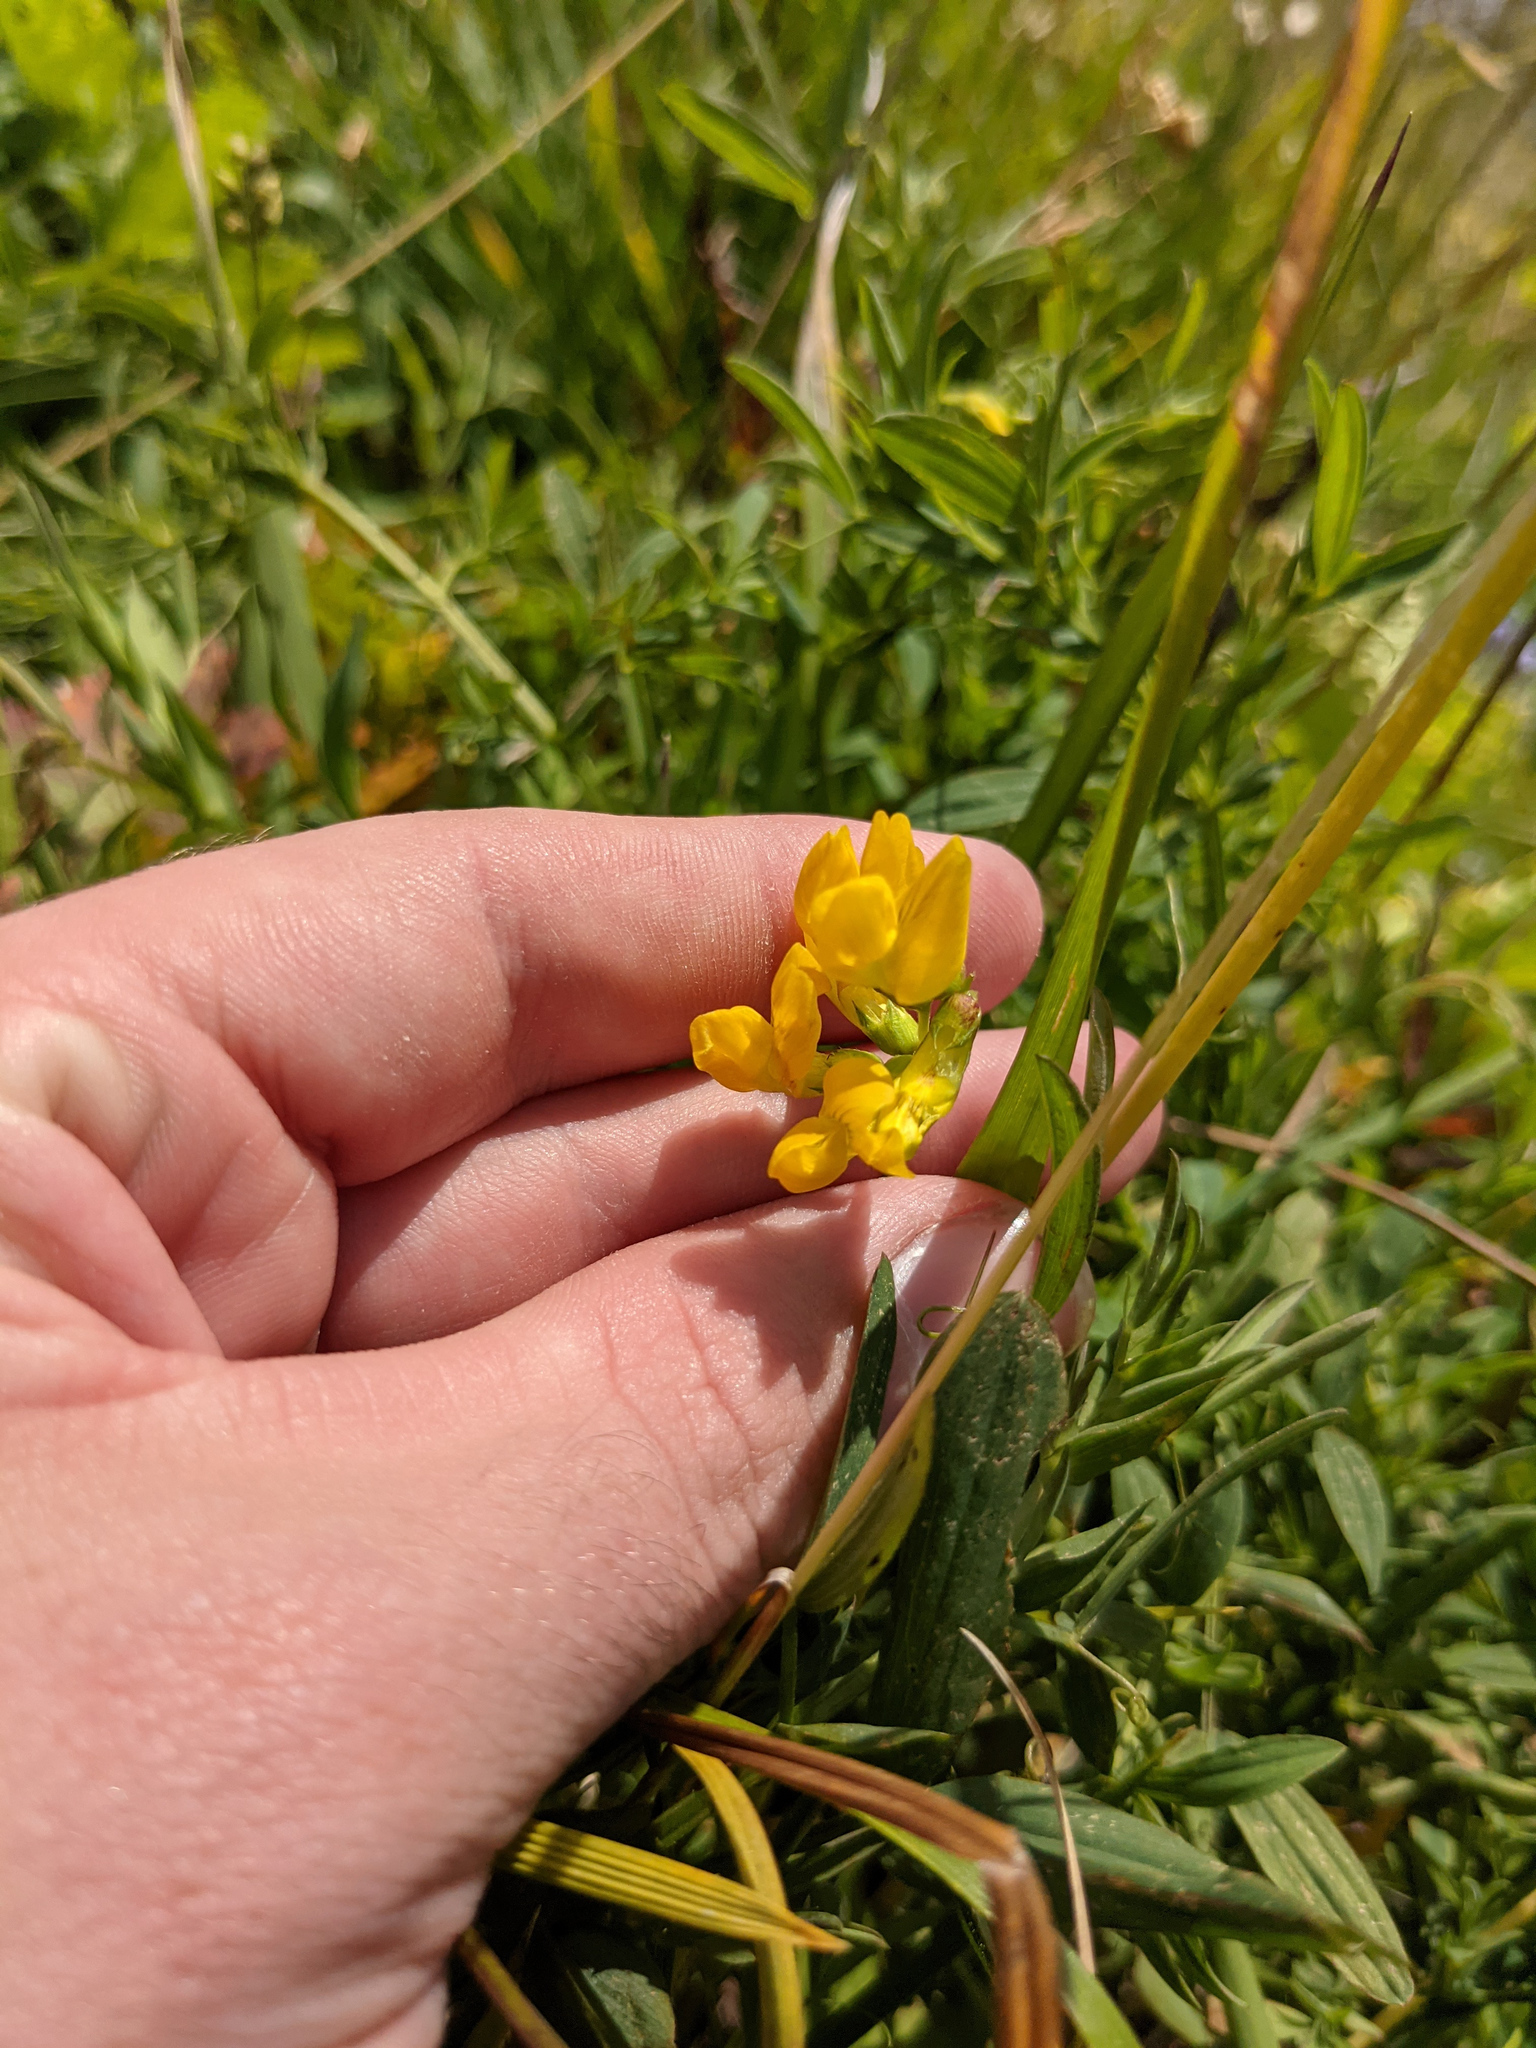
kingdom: Plantae
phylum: Tracheophyta
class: Magnoliopsida
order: Fabales
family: Fabaceae
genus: Lathyrus
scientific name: Lathyrus pratensis
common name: Meadow vetchling
